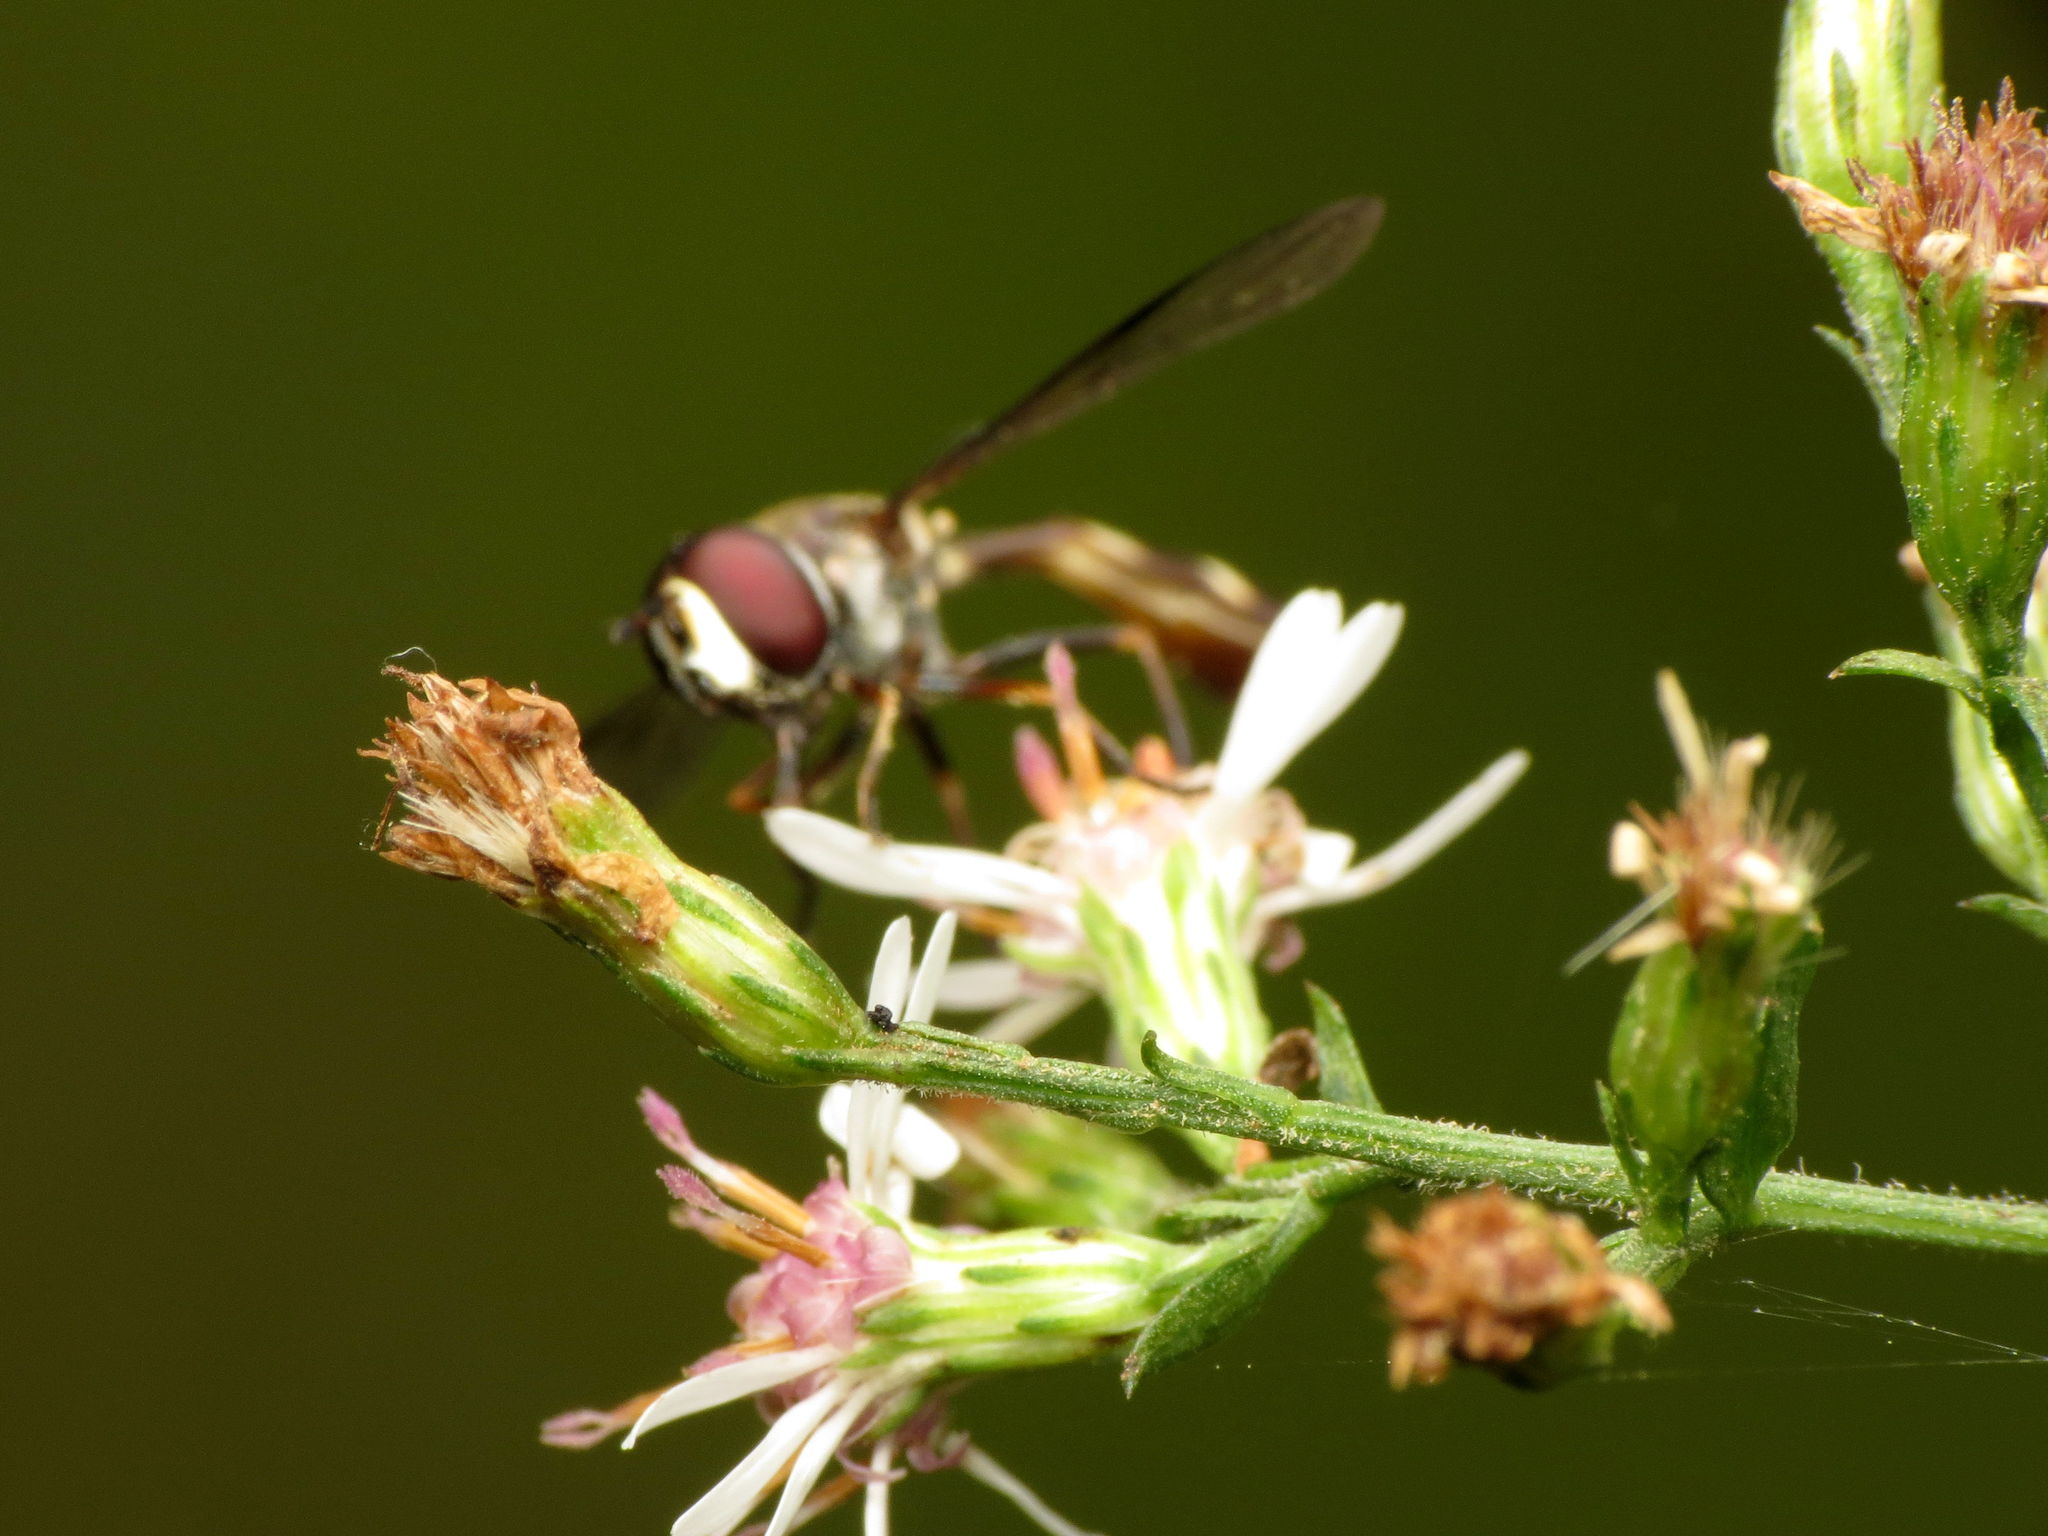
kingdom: Animalia
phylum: Arthropoda
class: Insecta
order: Diptera
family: Syrphidae
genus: Dioprosopa
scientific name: Dioprosopa clavatus
